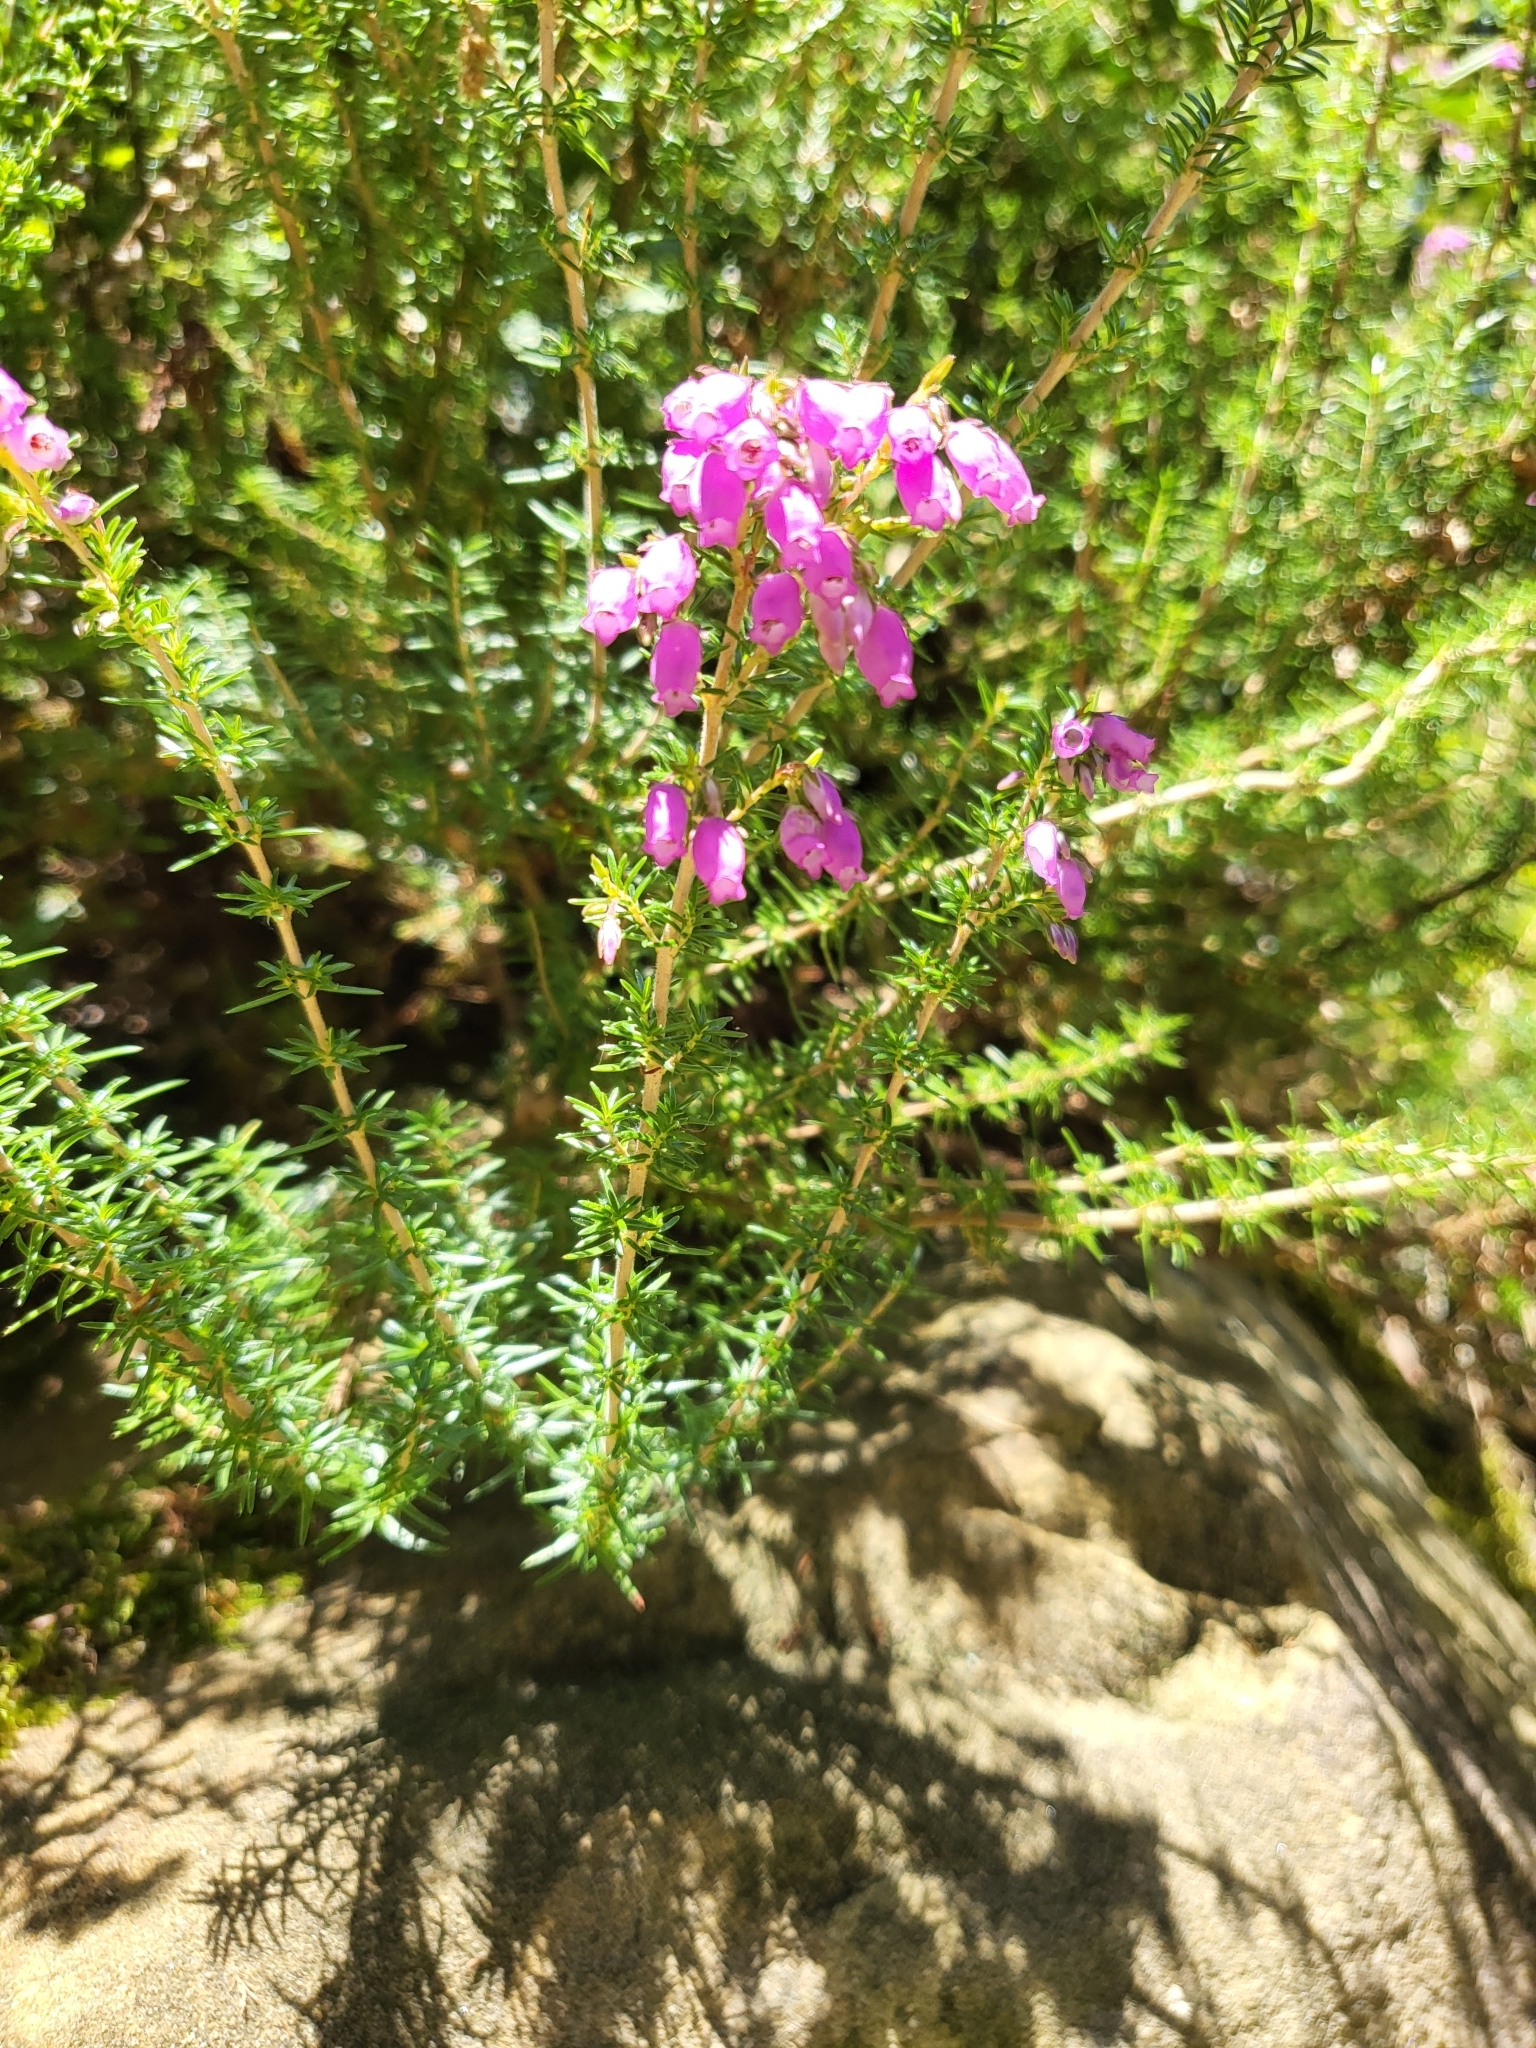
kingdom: Plantae
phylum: Tracheophyta
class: Magnoliopsida
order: Ericales
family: Ericaceae
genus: Erica
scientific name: Erica cinerea
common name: Bell heather
